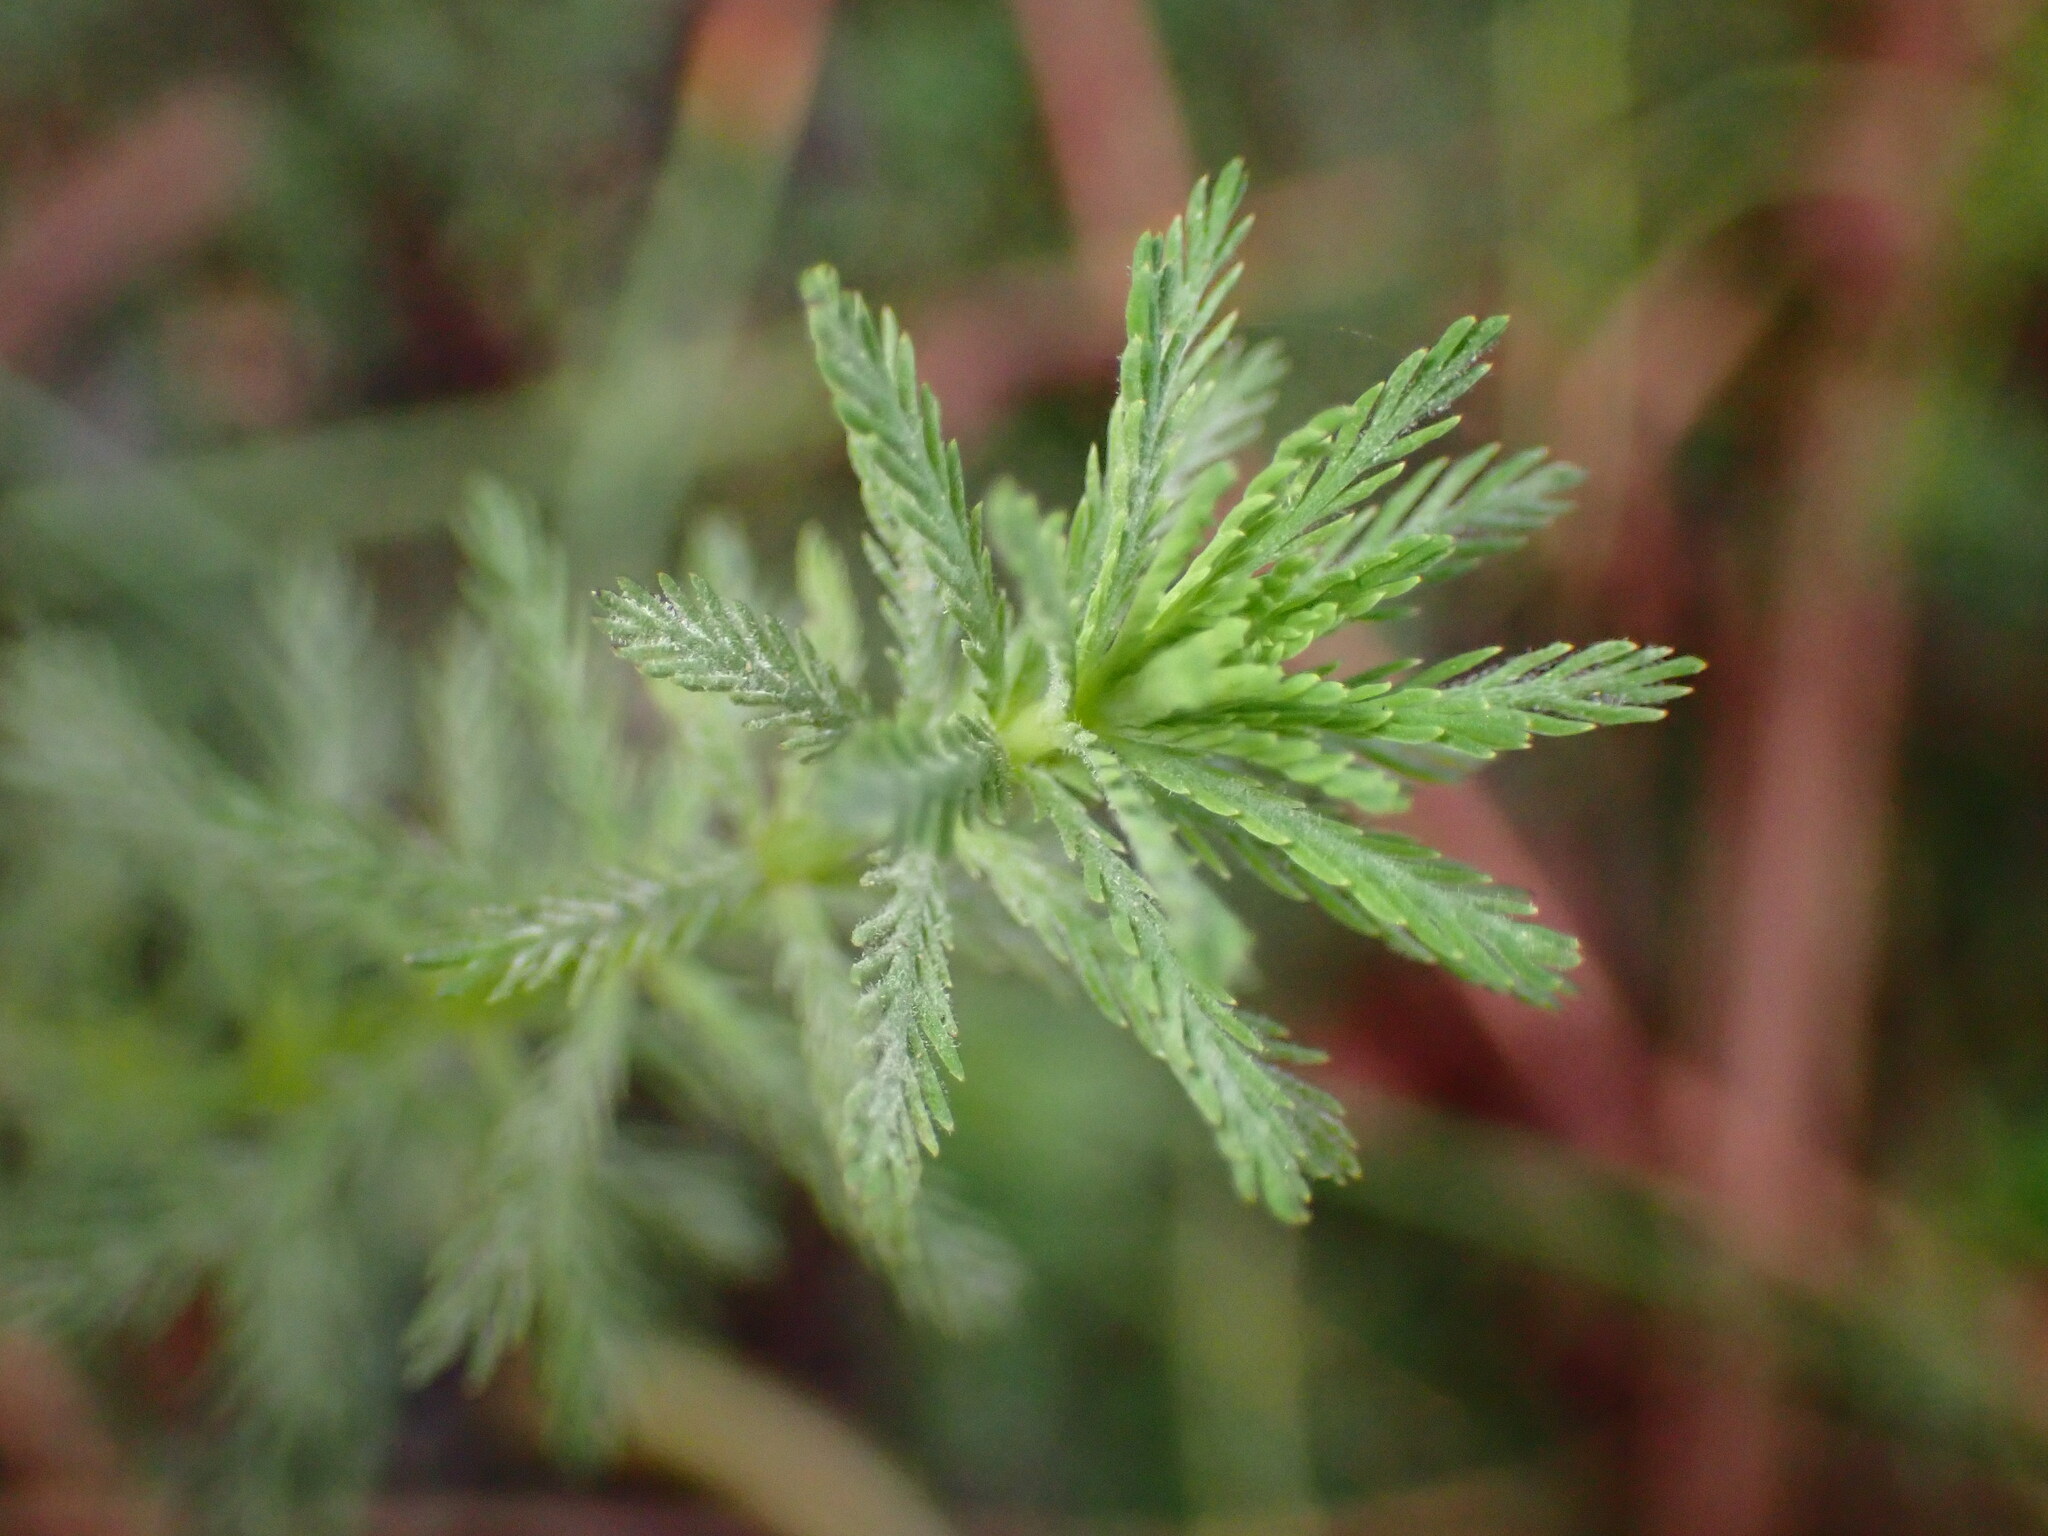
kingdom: Plantae
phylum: Tracheophyta
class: Magnoliopsida
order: Saxifragales
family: Haloragaceae
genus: Myriophyllum
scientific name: Myriophyllum aquaticum
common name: Parrot's feather
